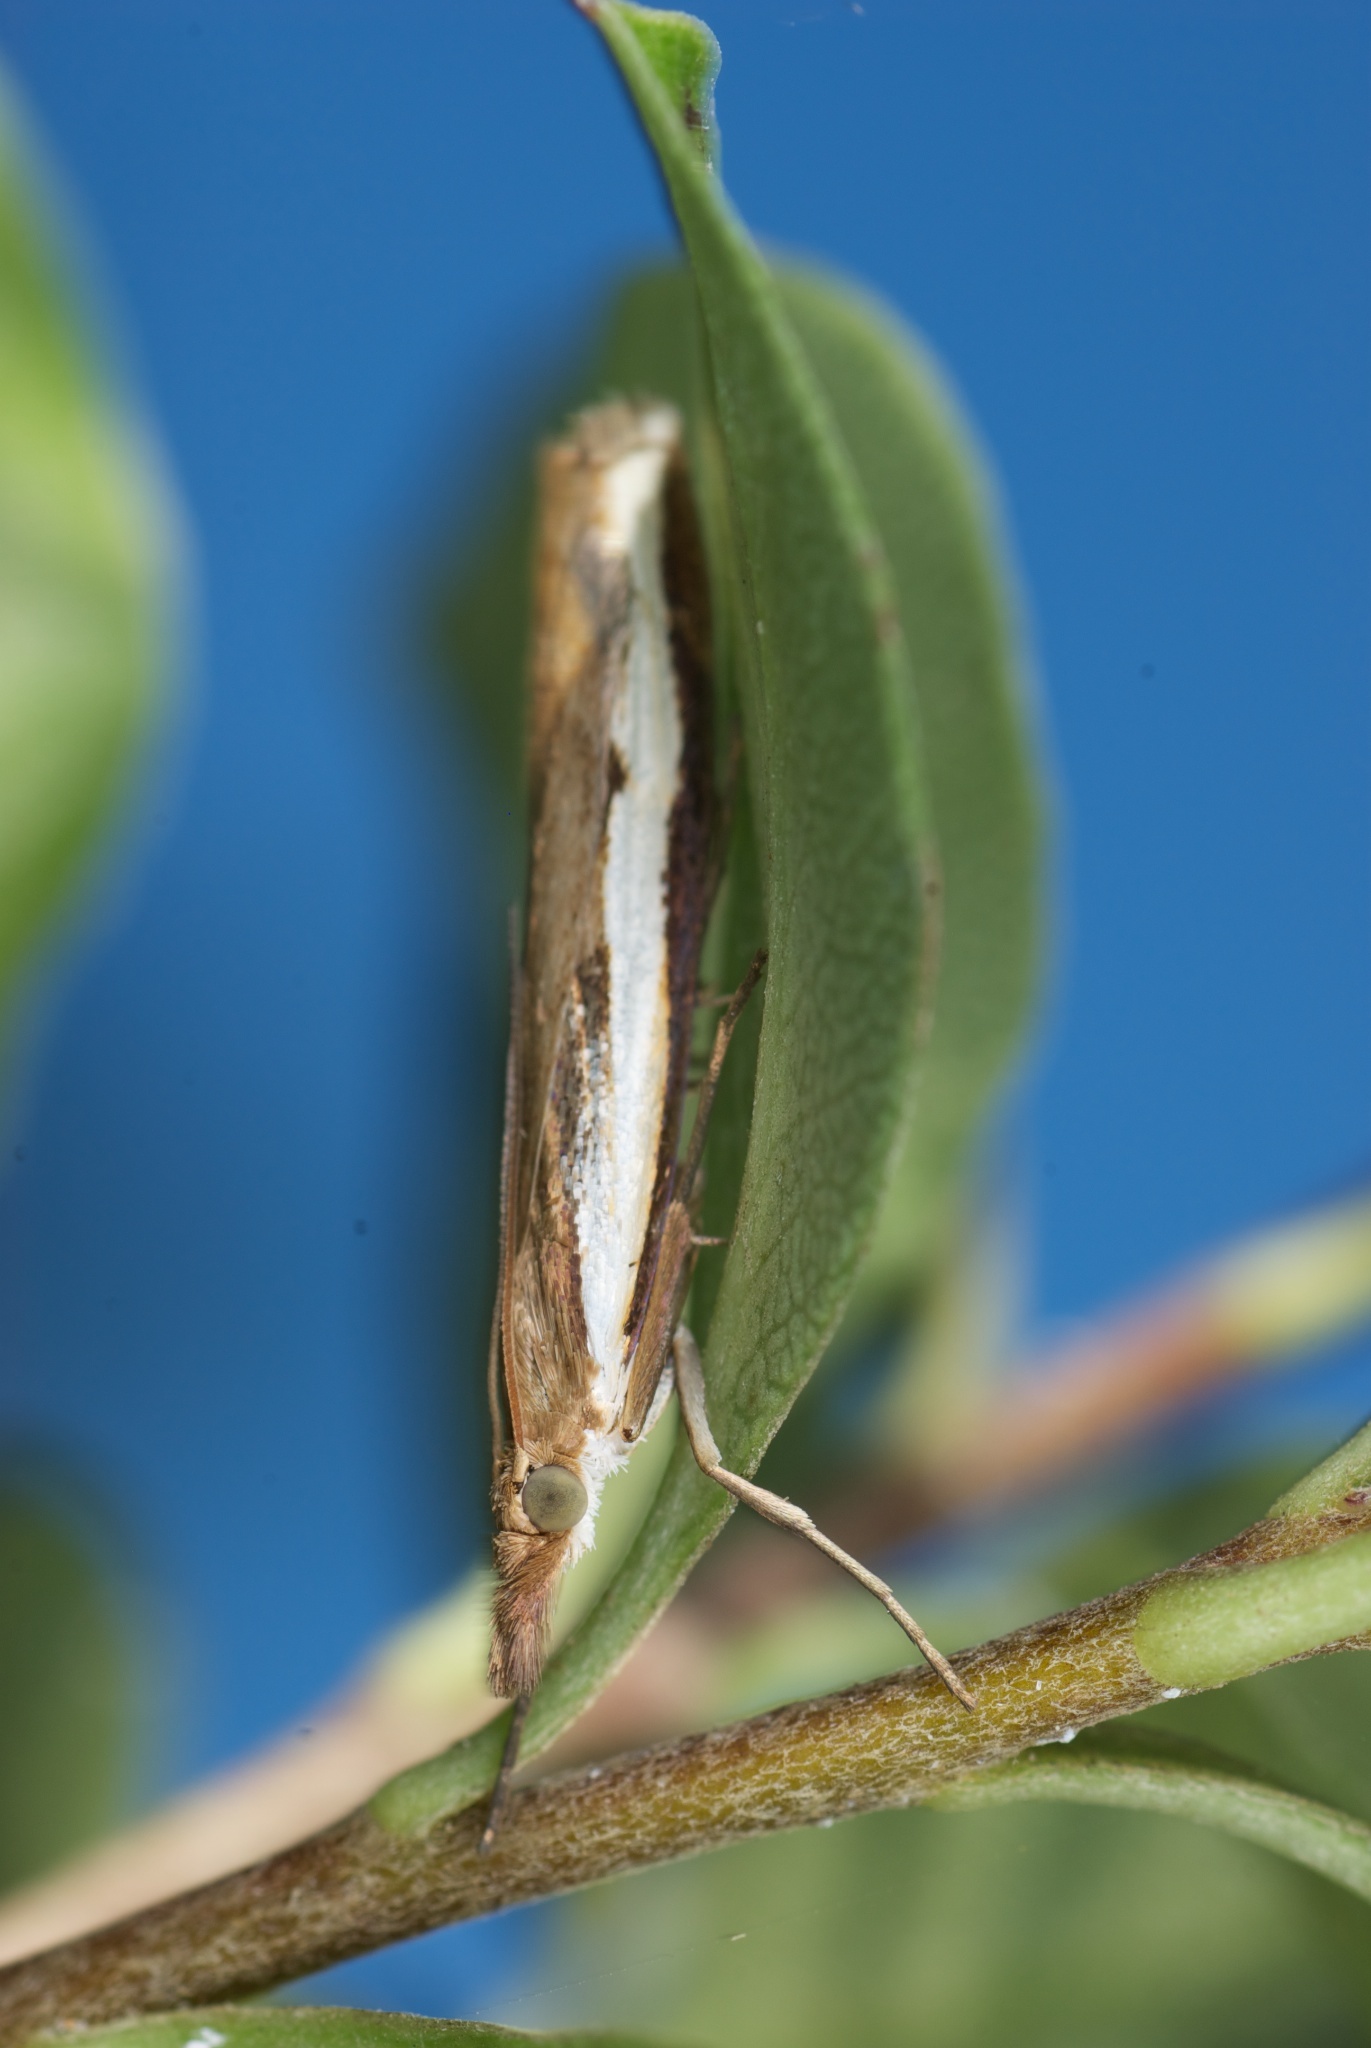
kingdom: Animalia
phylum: Arthropoda
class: Insecta
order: Lepidoptera
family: Crambidae
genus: Orocrambus
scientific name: Orocrambus flexuosellus
